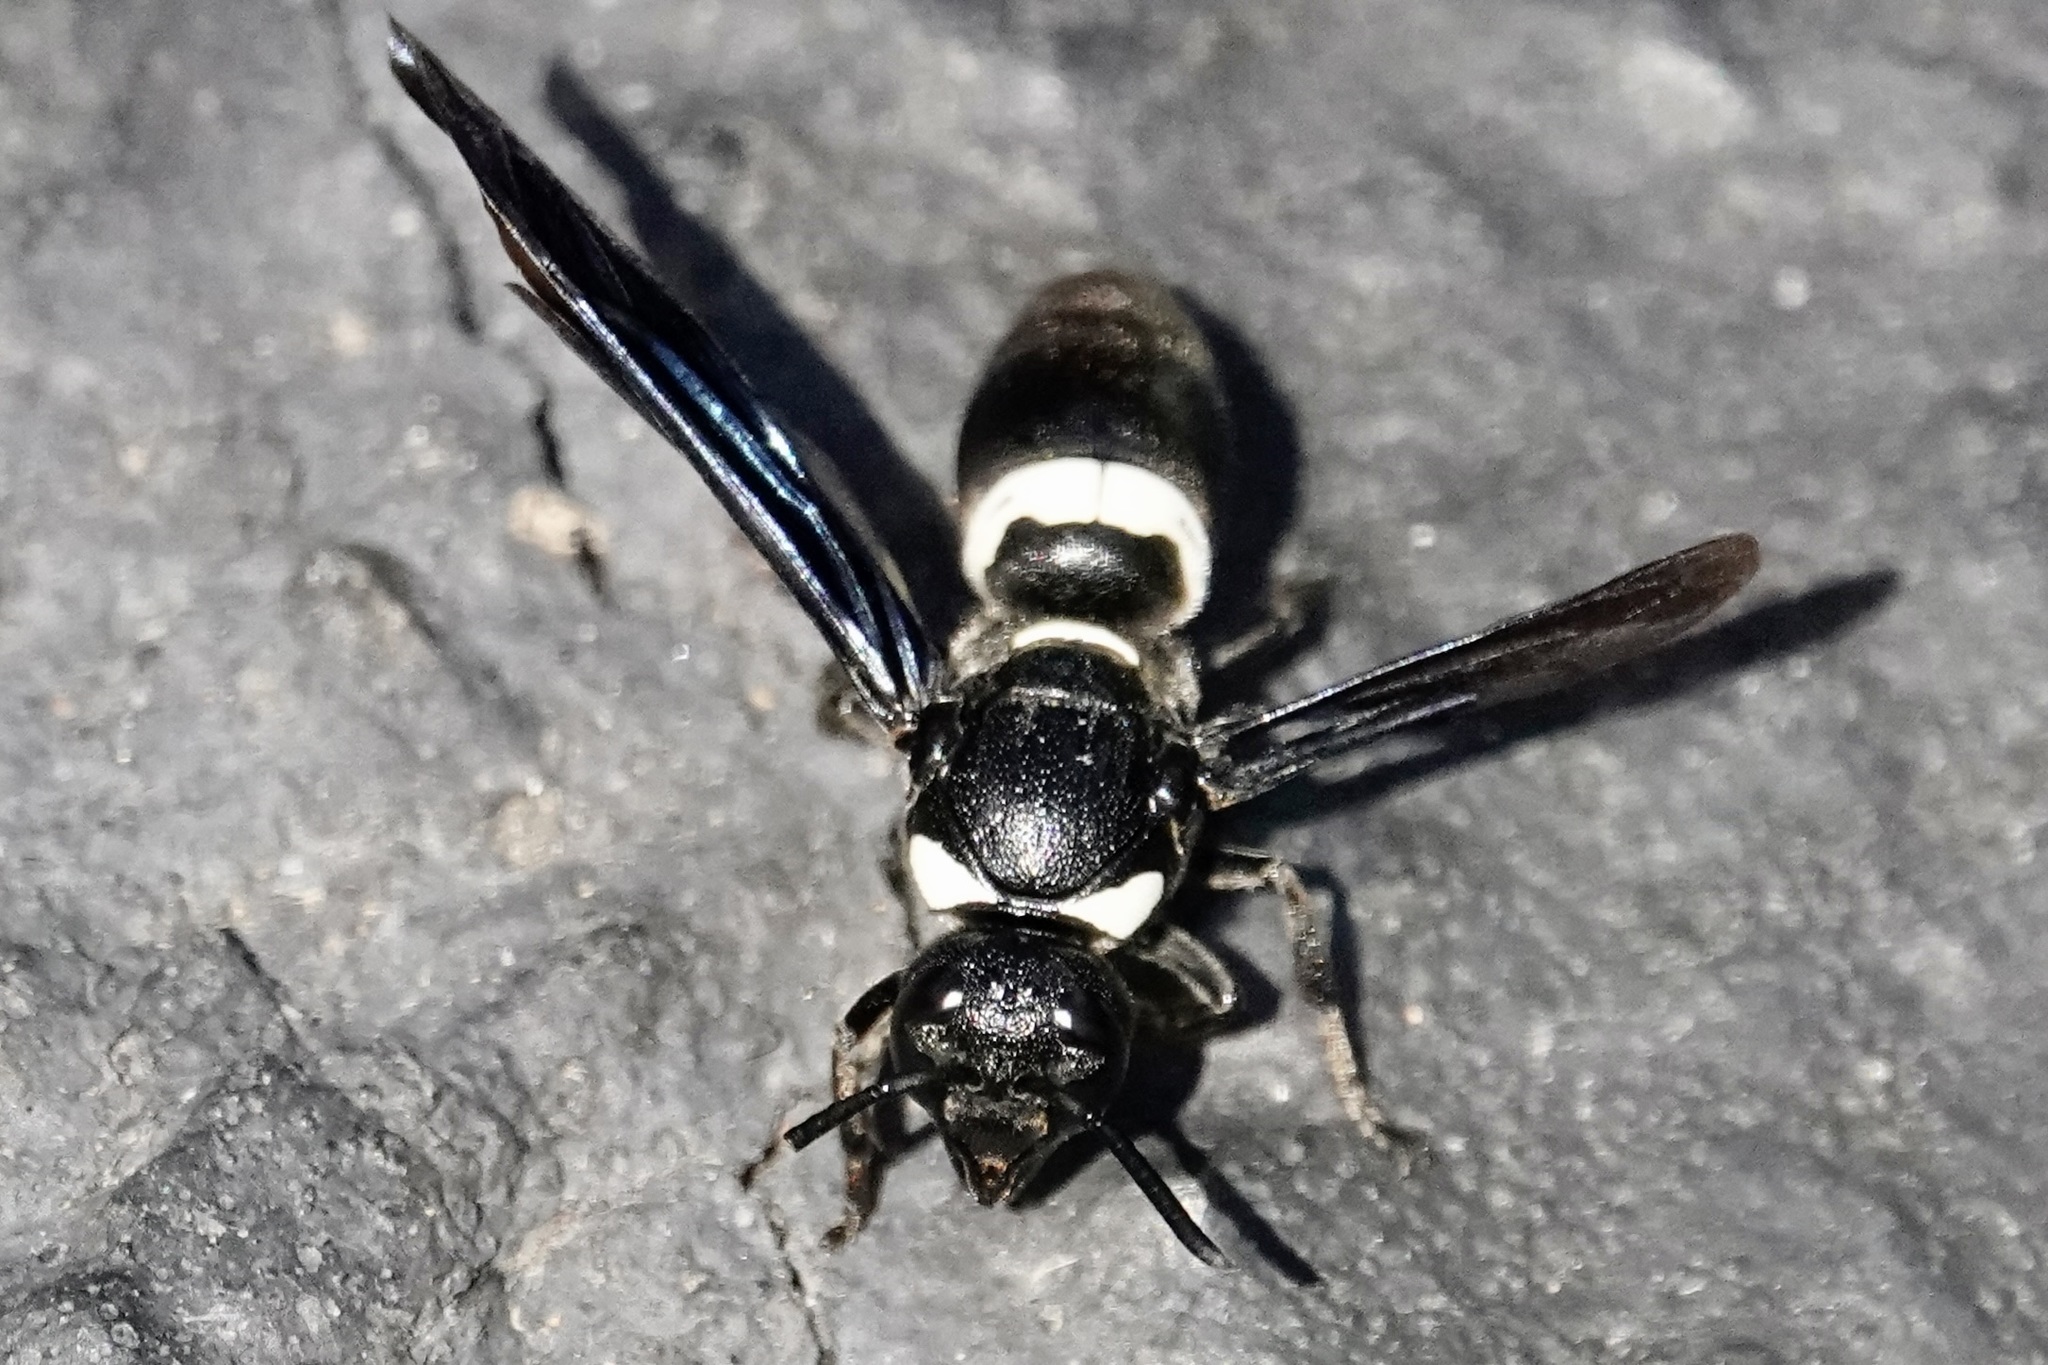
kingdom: Animalia
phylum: Arthropoda
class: Insecta
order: Hymenoptera
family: Eumenidae
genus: Monobia
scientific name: Monobia quadridens
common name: Four-toothed mason wasp
